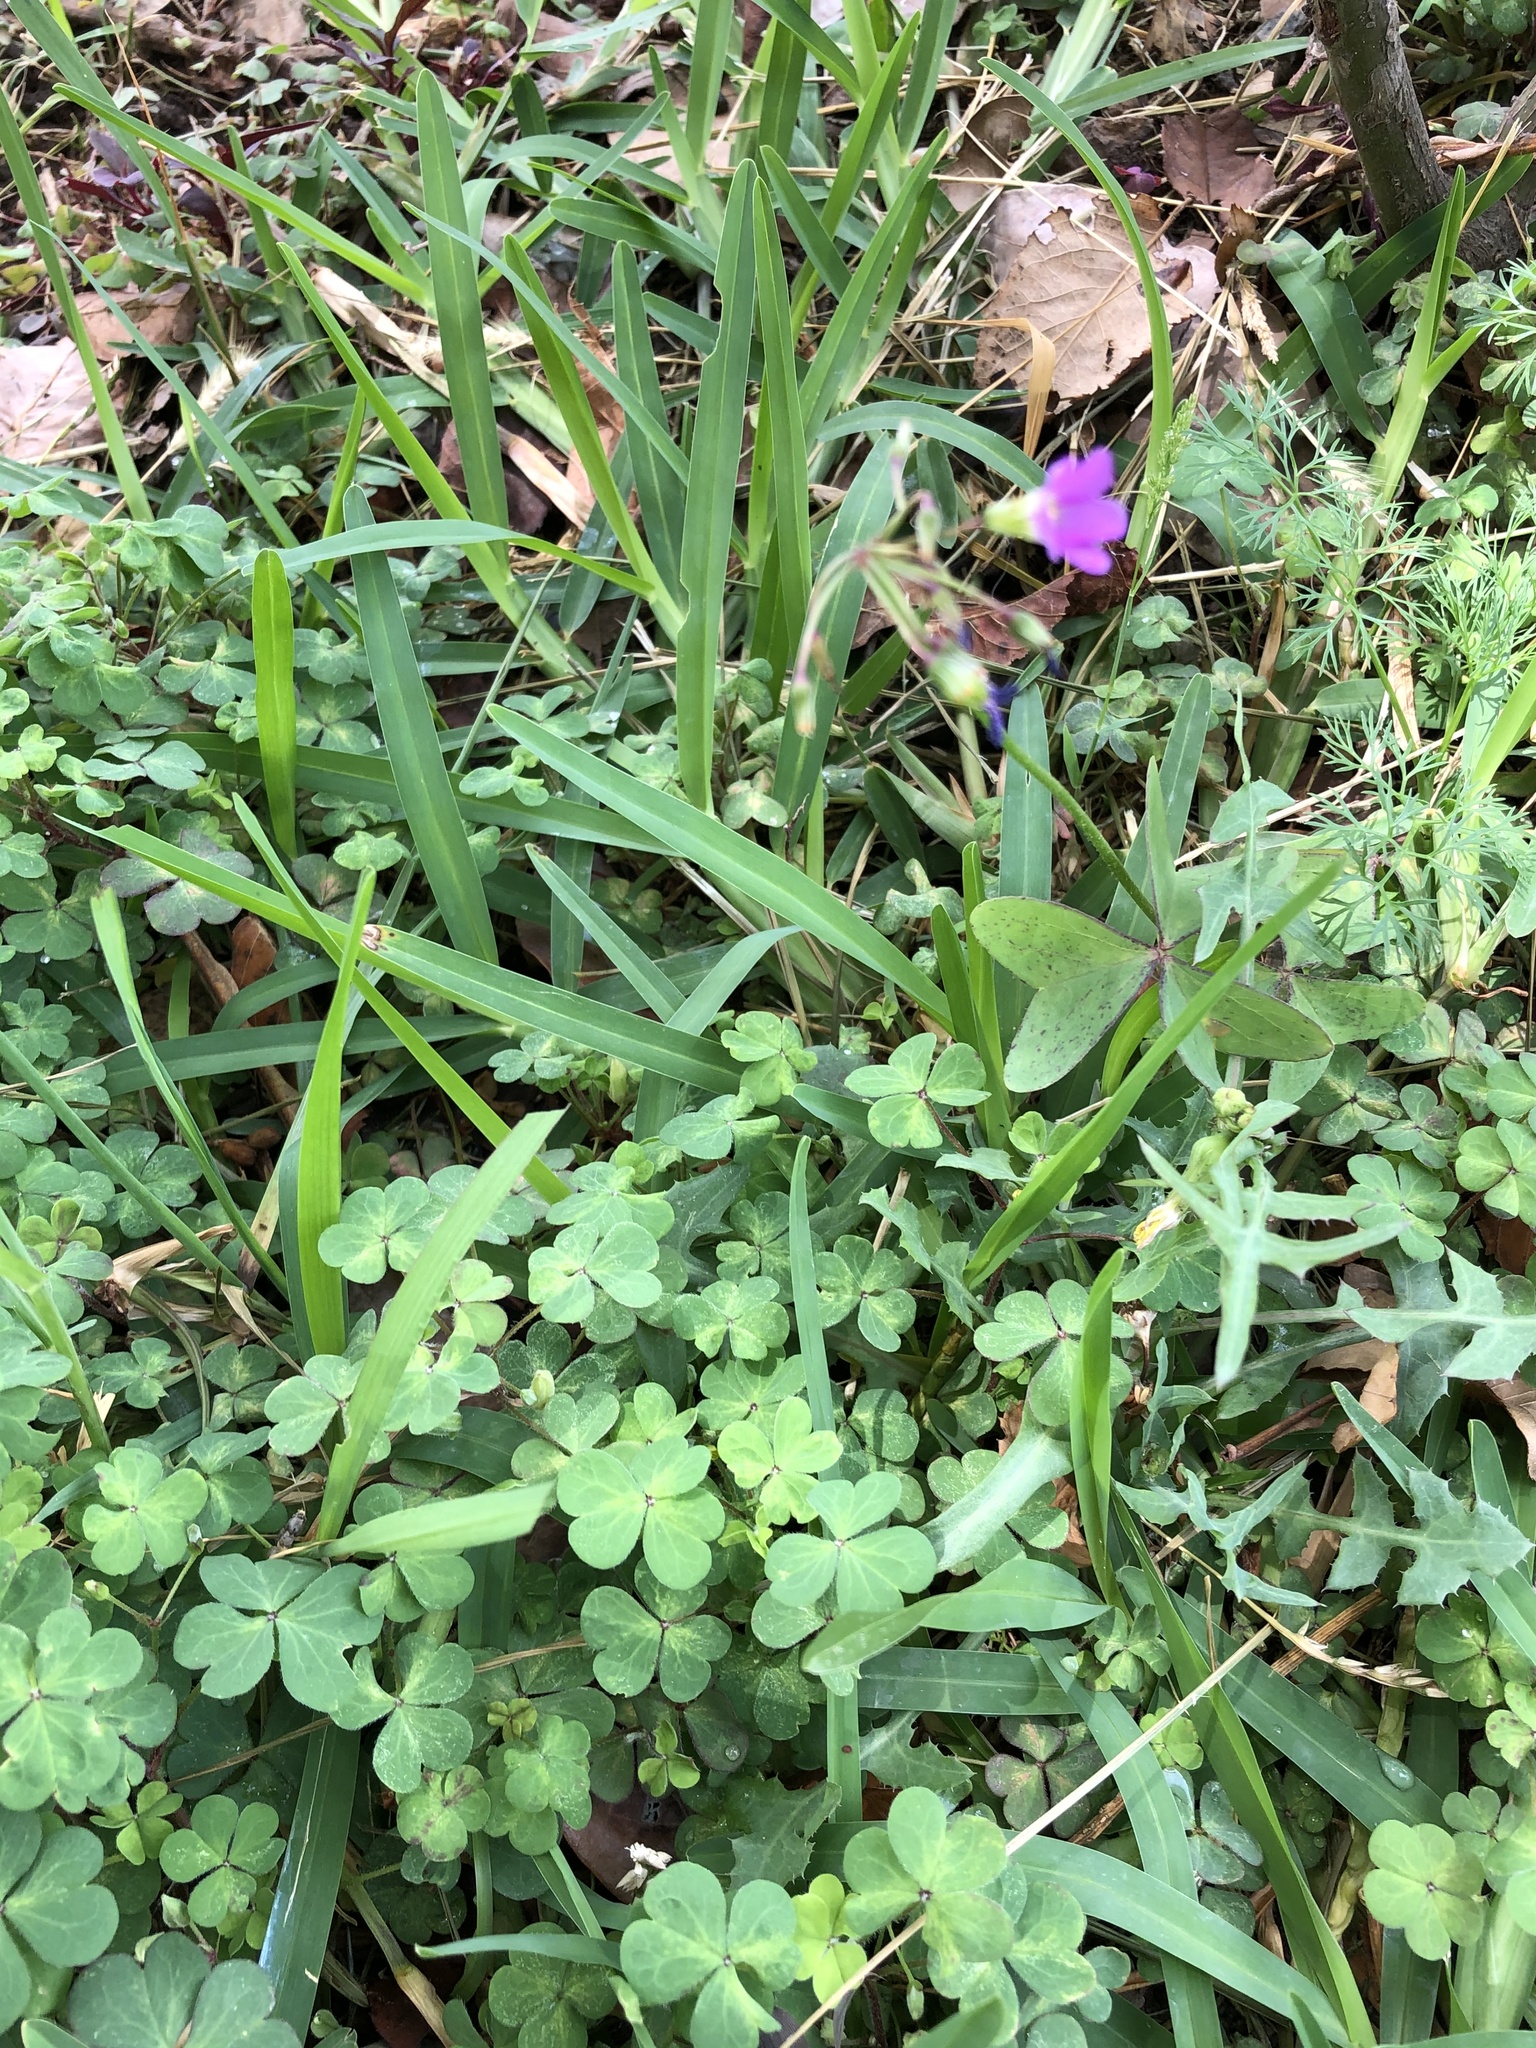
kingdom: Plantae
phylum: Tracheophyta
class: Magnoliopsida
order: Oxalidales
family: Oxalidaceae
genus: Oxalis
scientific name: Oxalis debilis
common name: Large-flowered pink-sorrel
